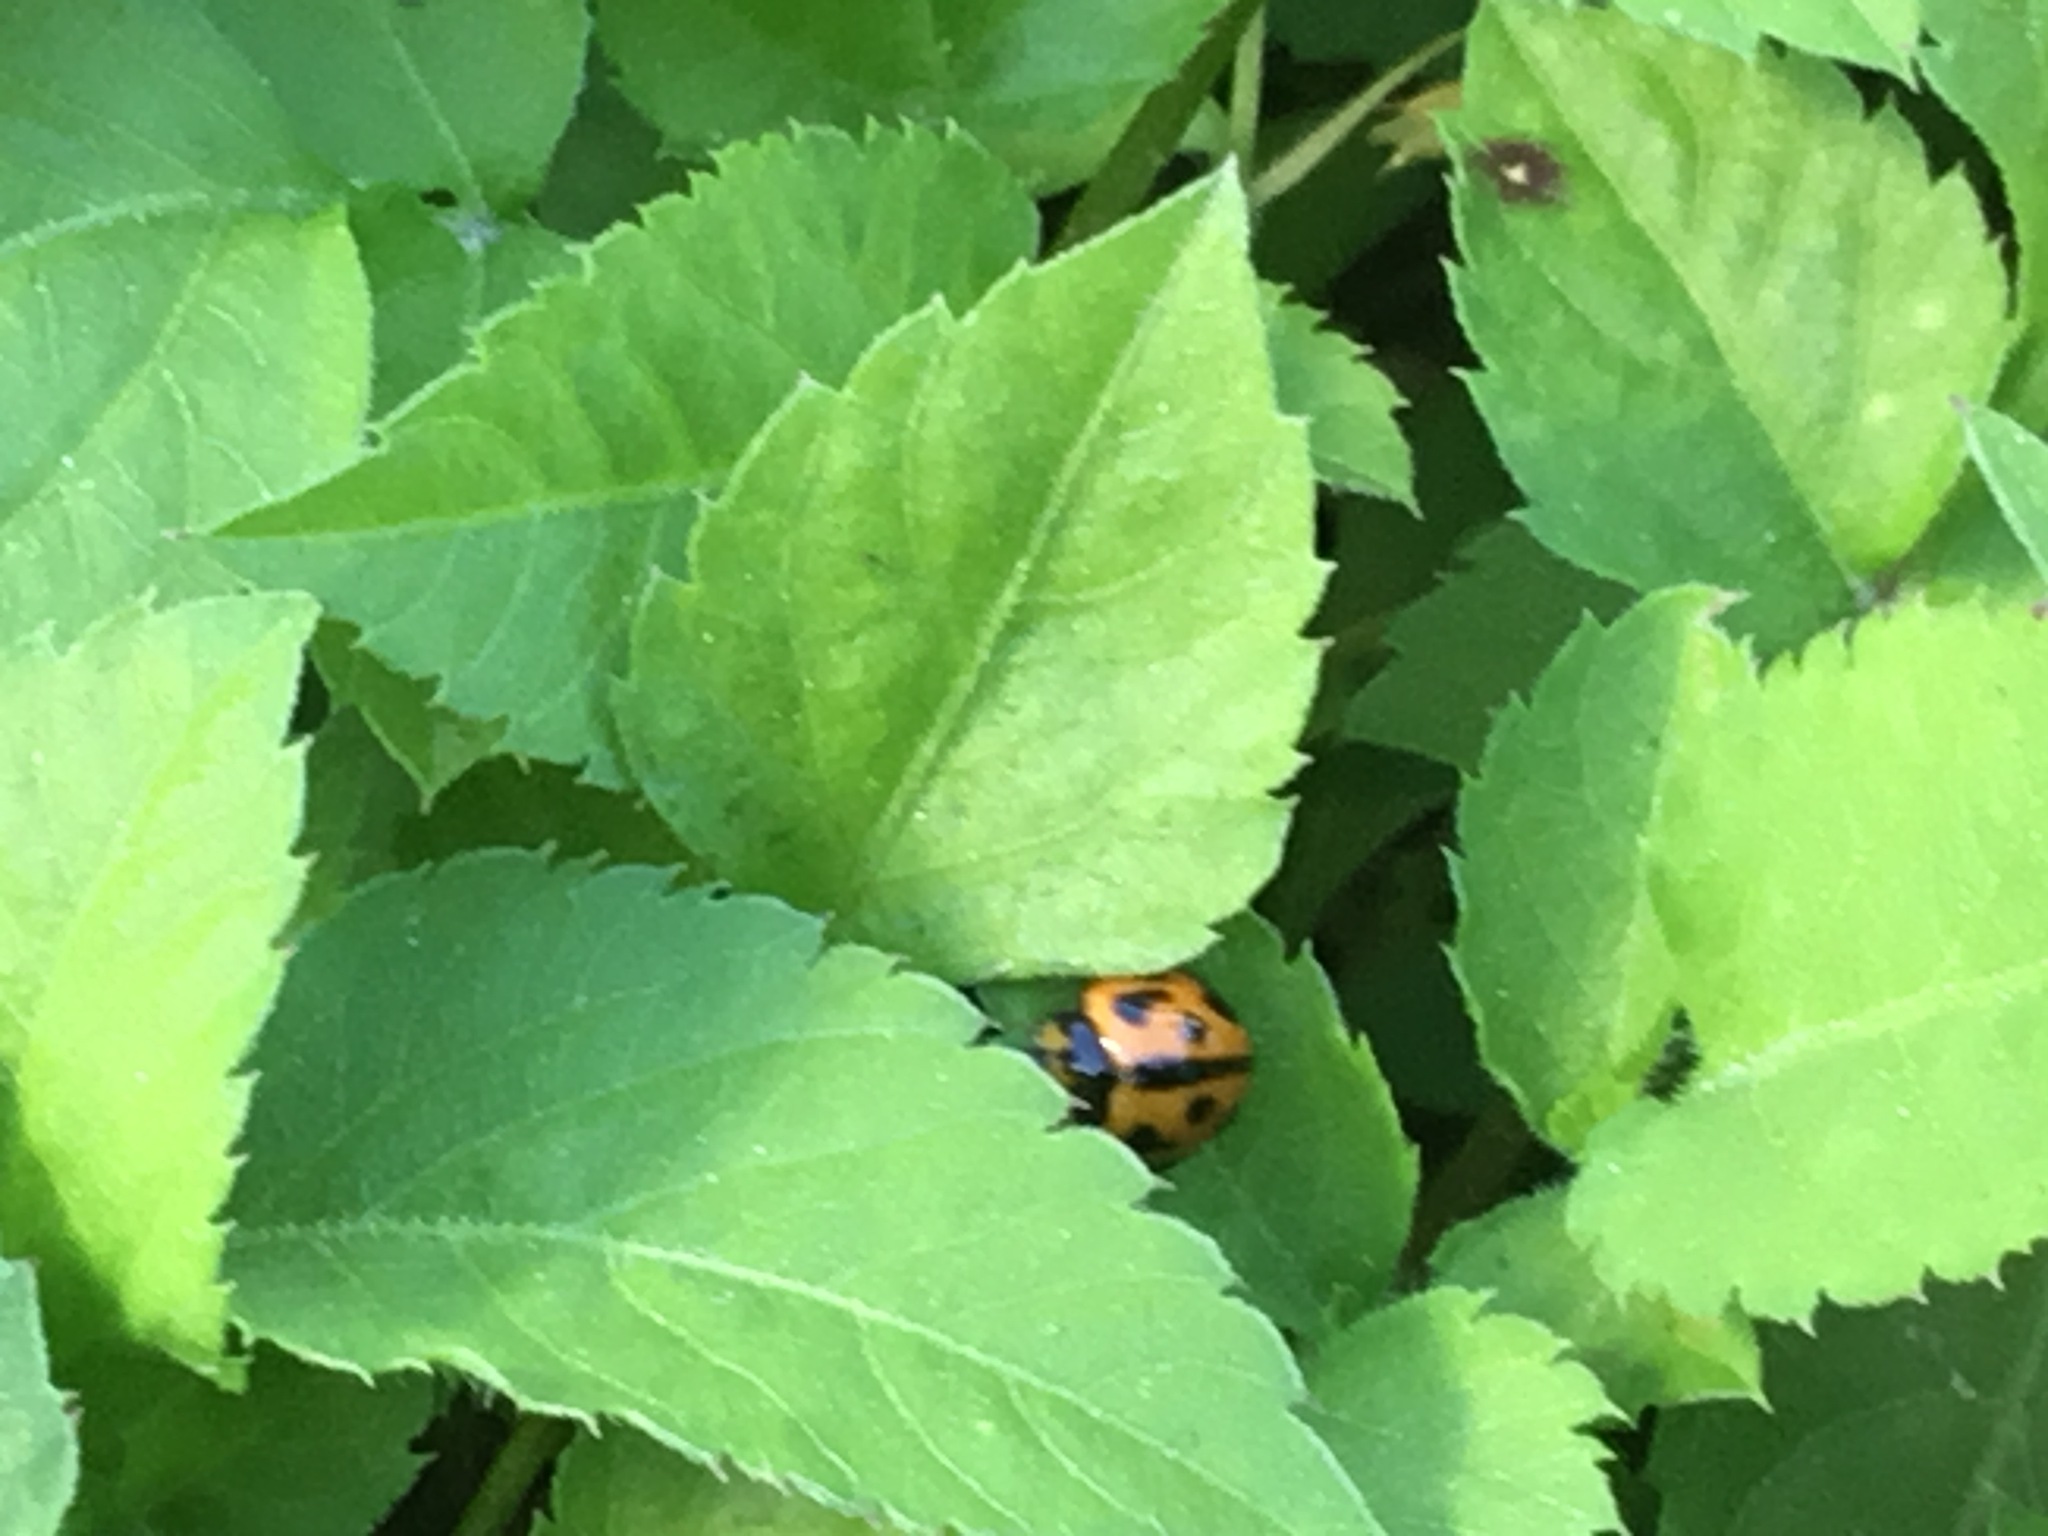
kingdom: Animalia
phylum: Arthropoda
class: Insecta
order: Coleoptera
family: Coccinellidae
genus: Coelophora
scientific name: Coelophora inaequalis
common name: Common australian lady beetle
